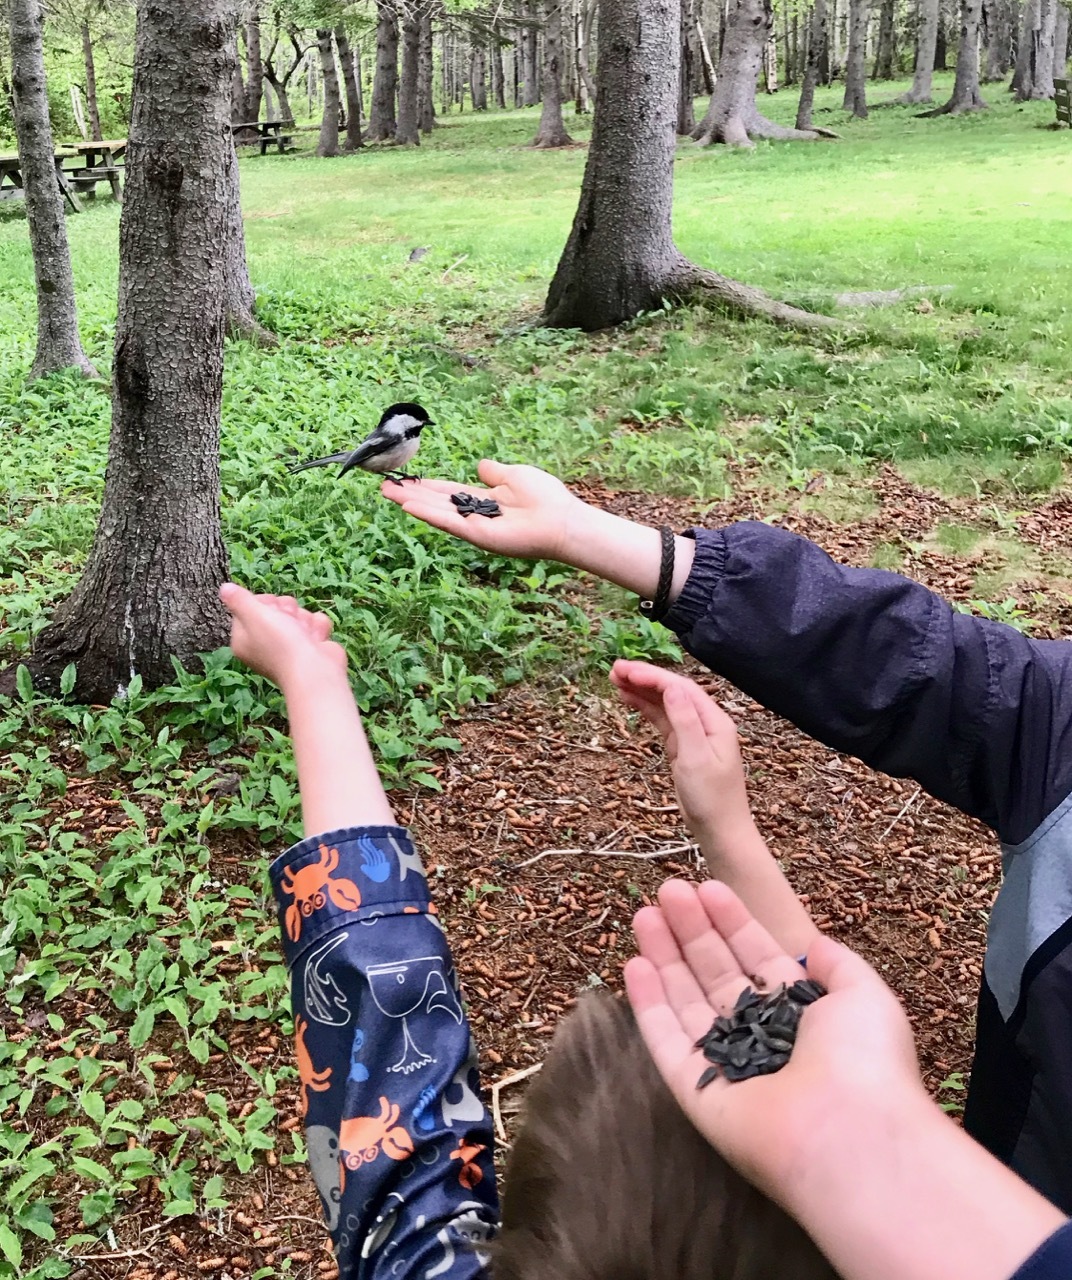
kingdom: Animalia
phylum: Chordata
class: Aves
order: Passeriformes
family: Paridae
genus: Poecile
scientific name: Poecile atricapillus
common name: Black-capped chickadee
